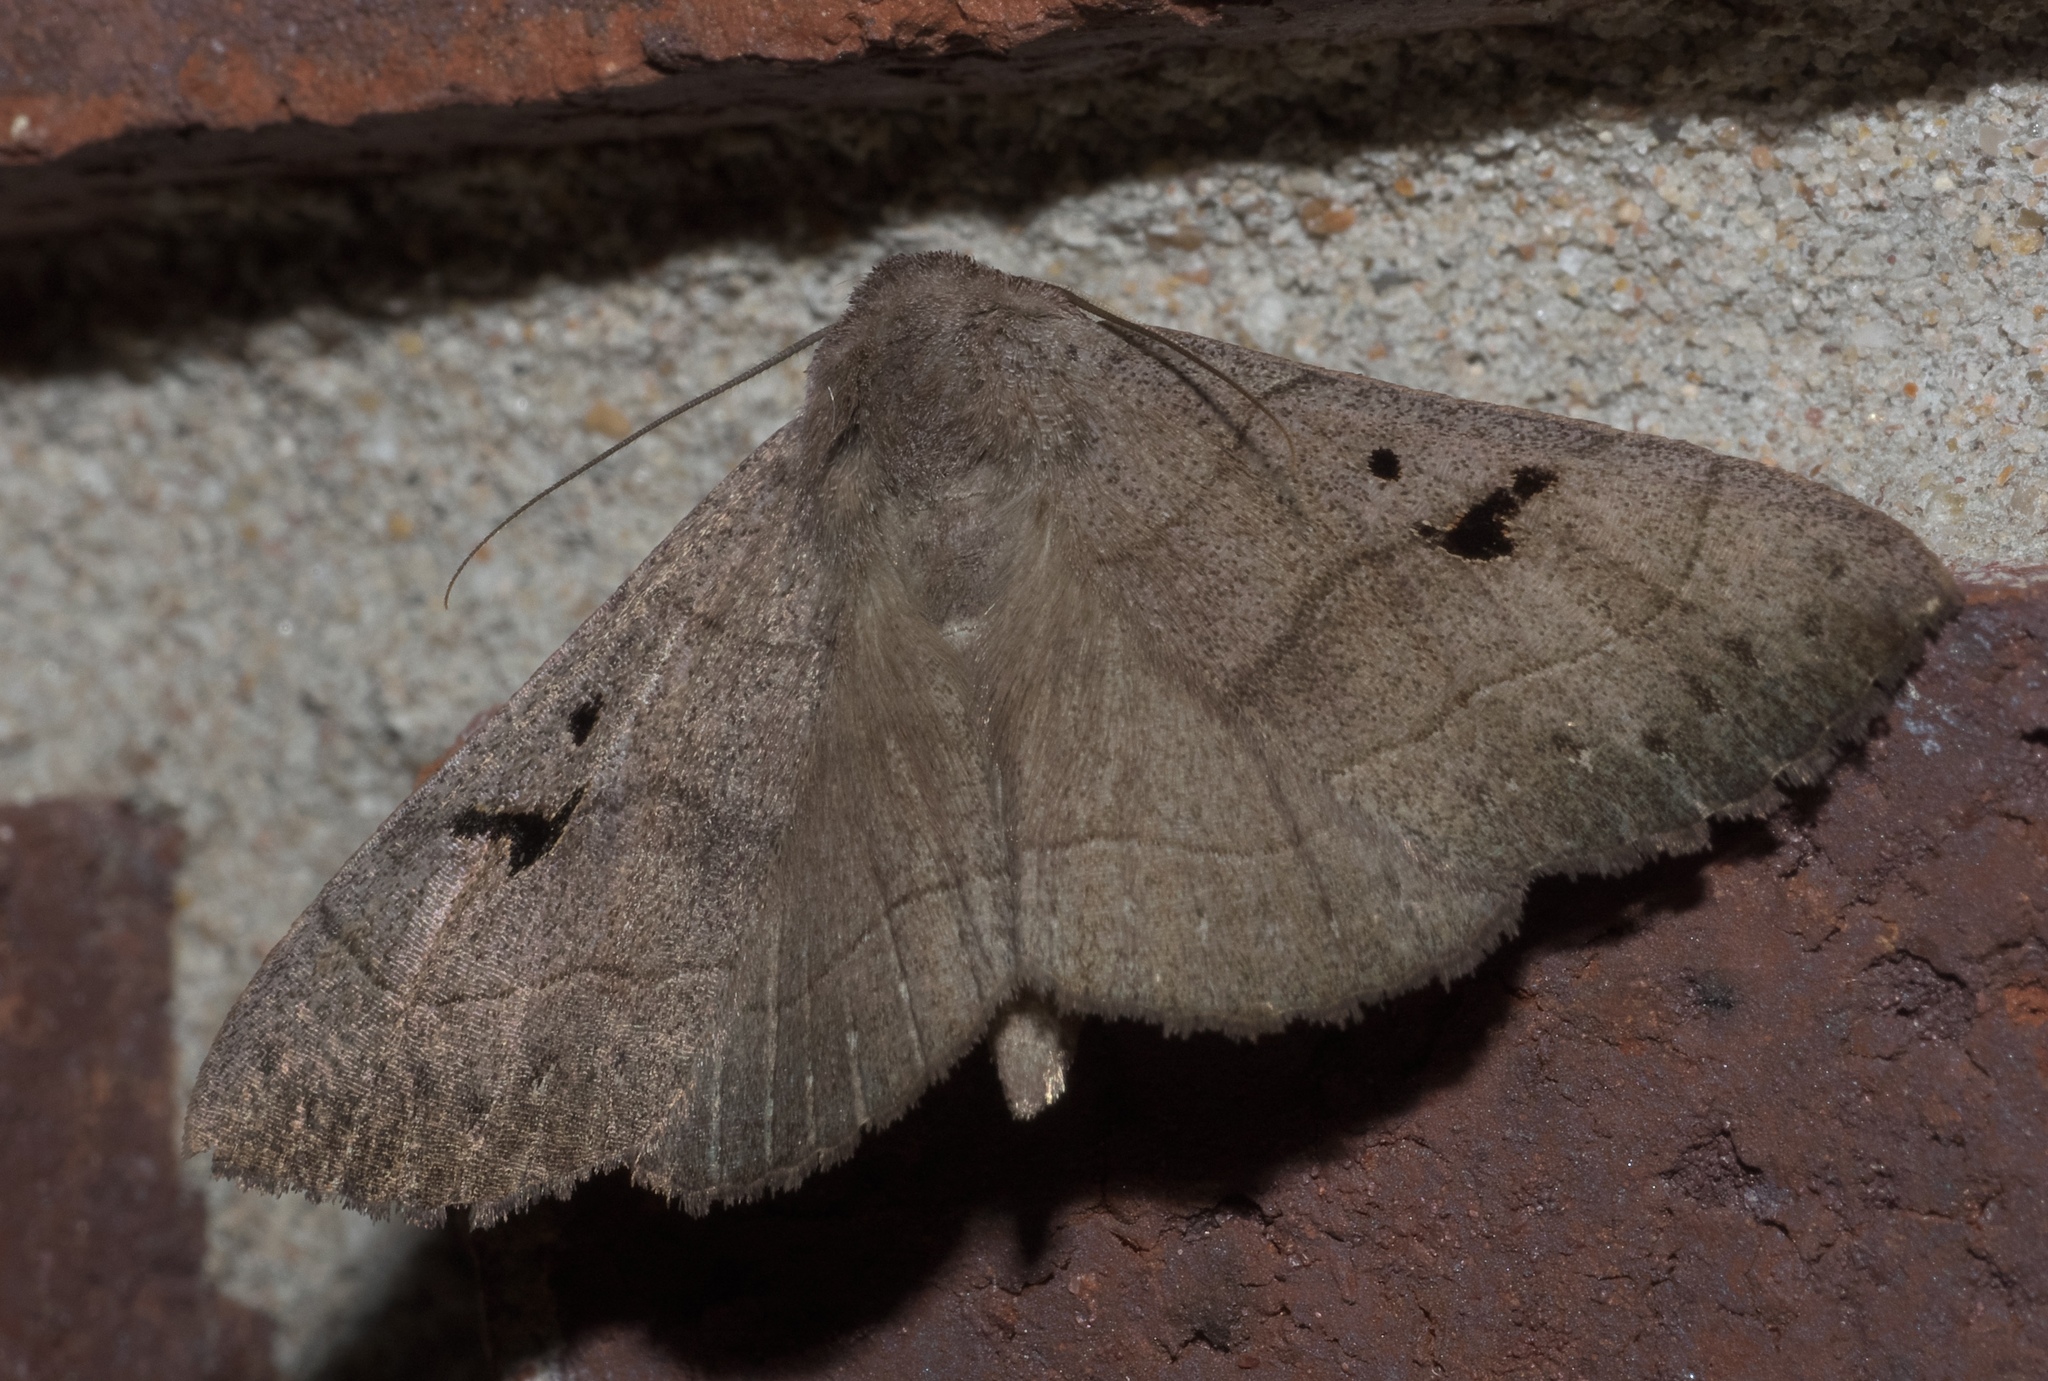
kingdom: Animalia
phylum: Arthropoda
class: Insecta
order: Lepidoptera
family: Erebidae
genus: Panopoda
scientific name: Panopoda carneicosta
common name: Brown panopoda moth
